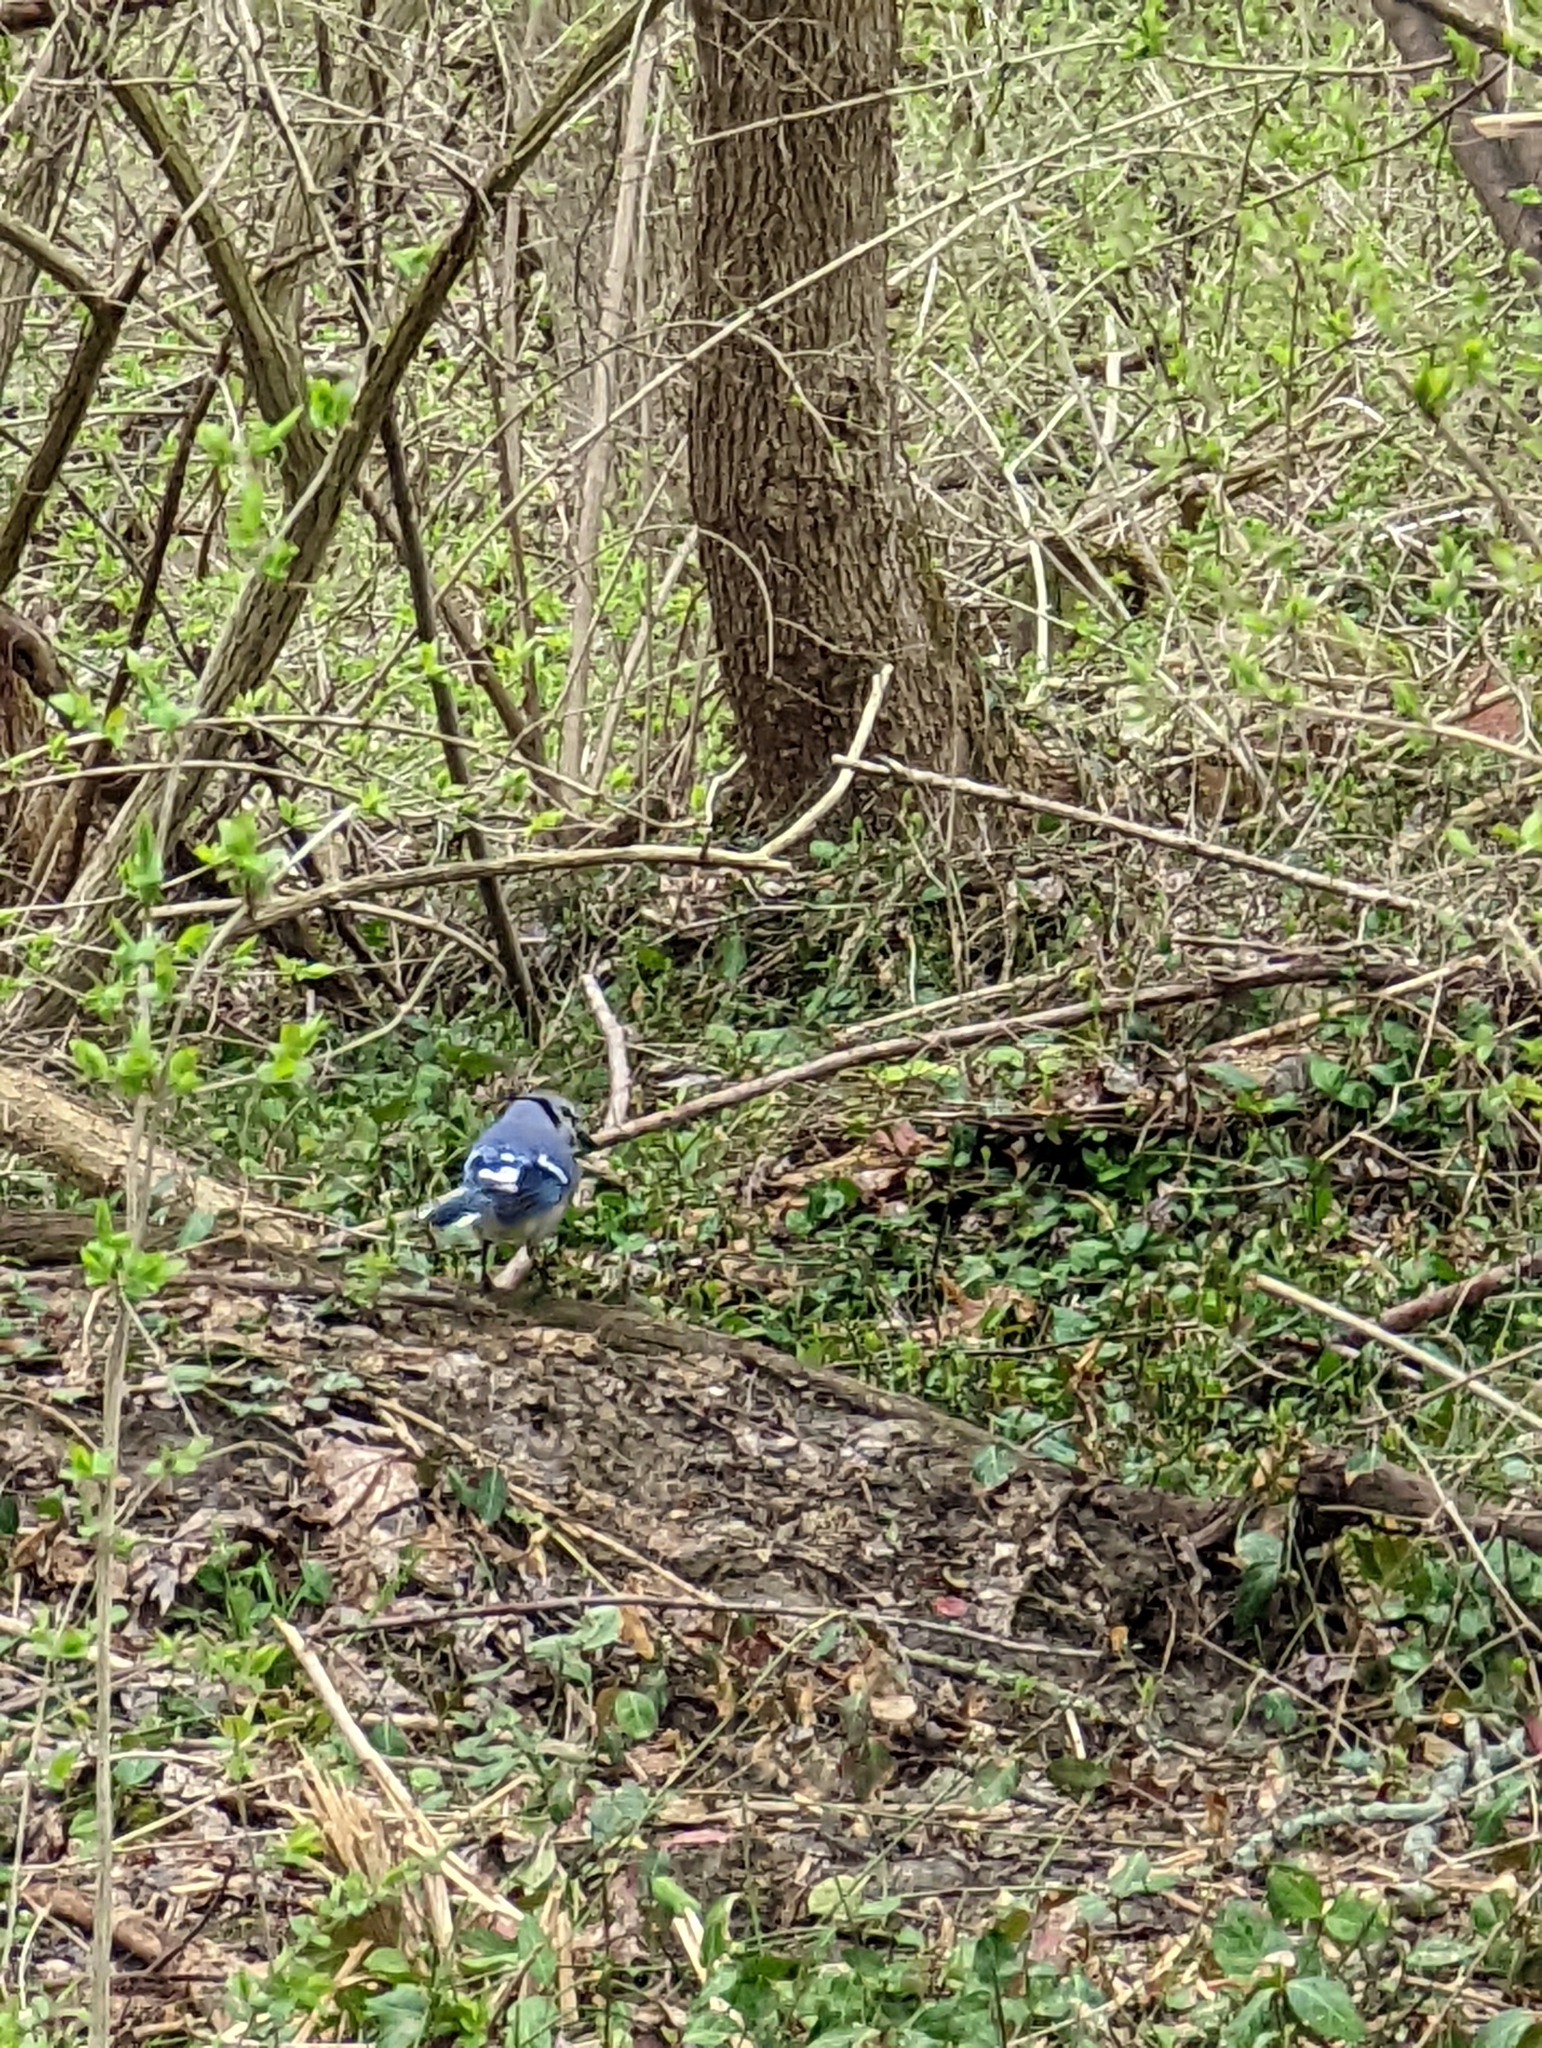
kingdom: Animalia
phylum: Chordata
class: Aves
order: Passeriformes
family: Corvidae
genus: Cyanocitta
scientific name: Cyanocitta cristata
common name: Blue jay
